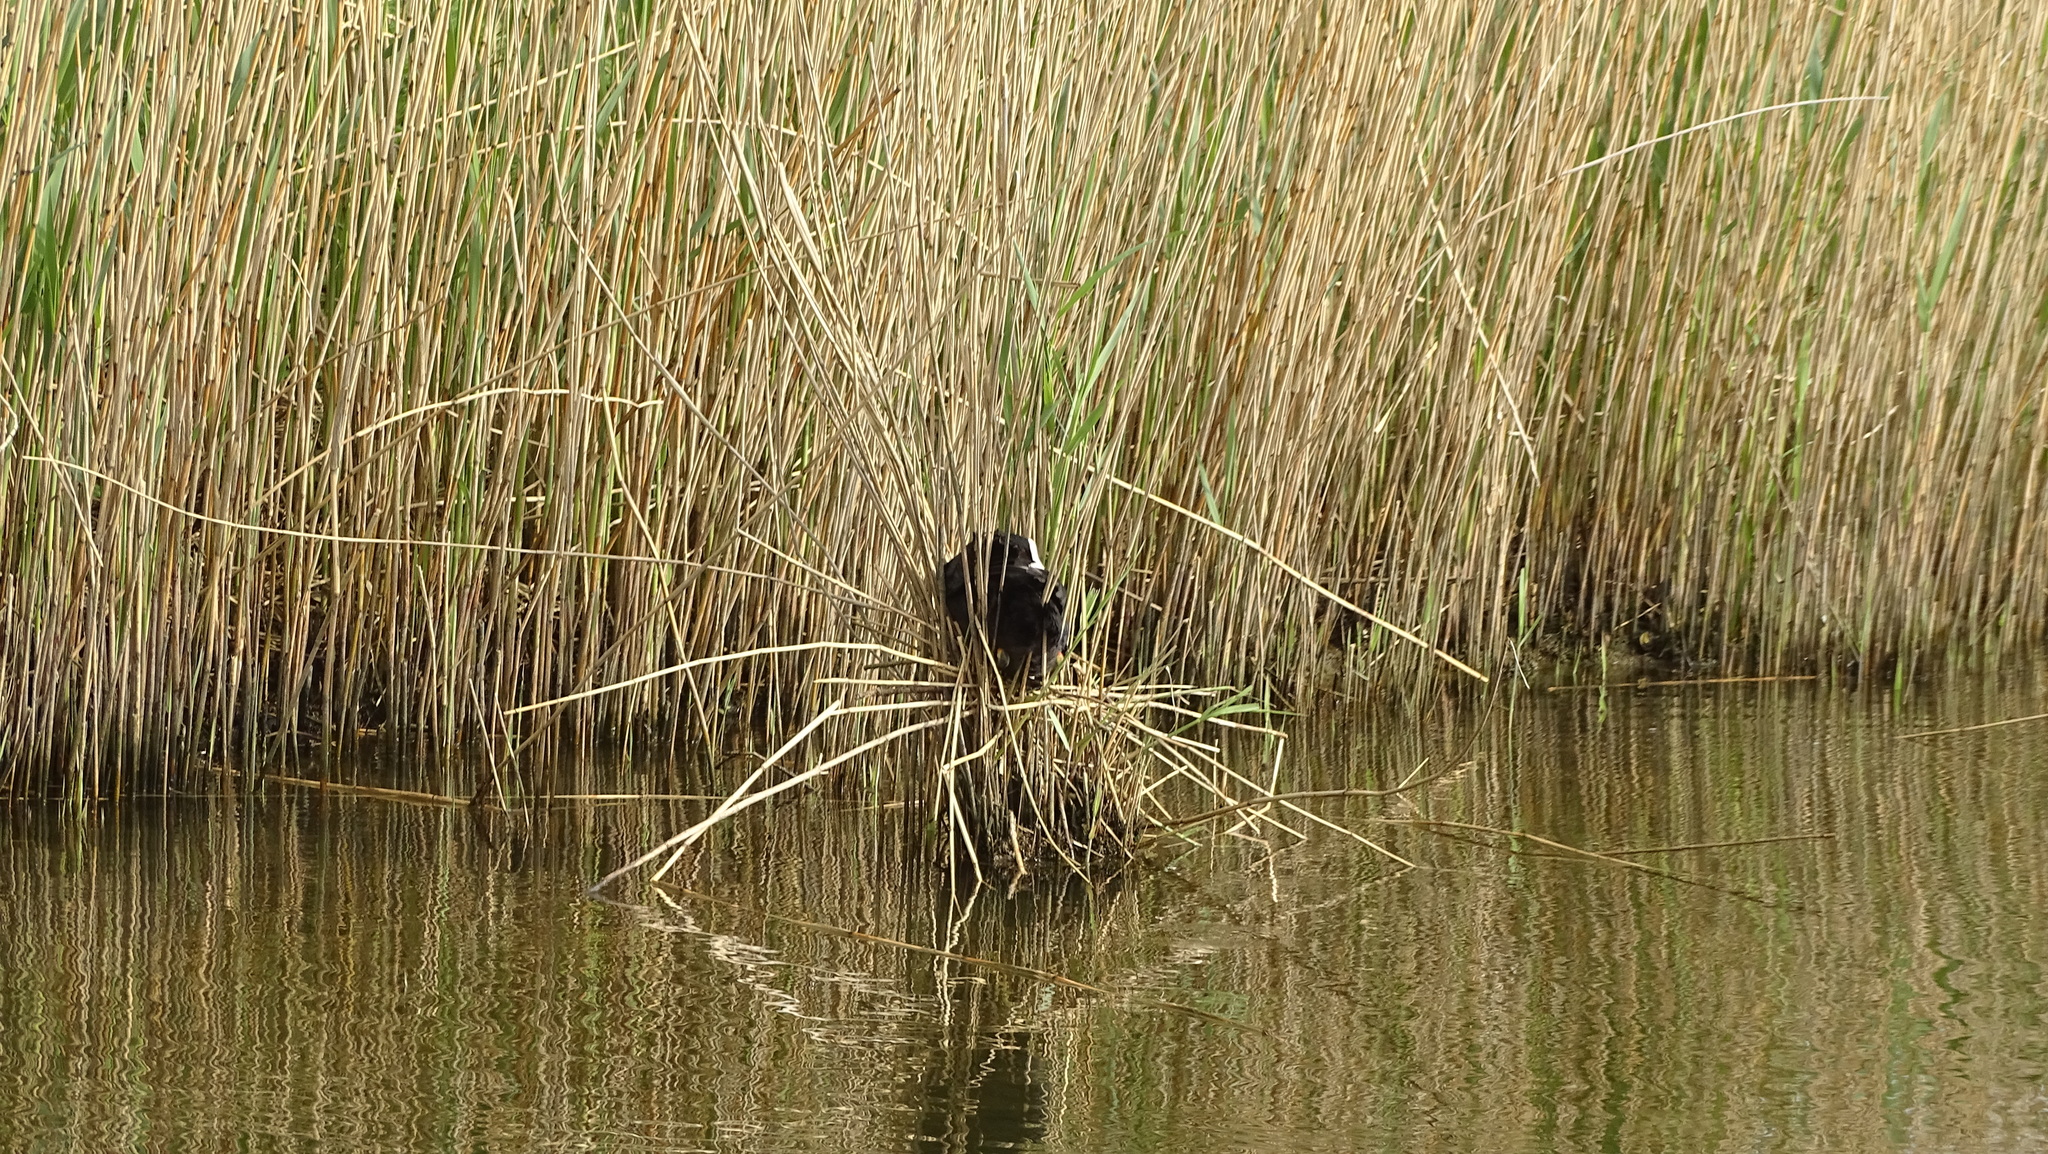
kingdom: Animalia
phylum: Chordata
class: Aves
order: Gruiformes
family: Rallidae
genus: Fulica
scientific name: Fulica atra
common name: Eurasian coot
